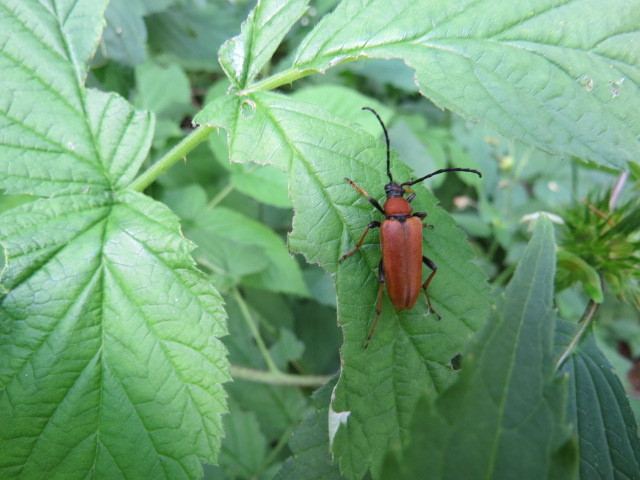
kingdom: Animalia
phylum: Arthropoda
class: Insecta
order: Coleoptera
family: Cerambycidae
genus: Stictoleptura
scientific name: Stictoleptura rubra
